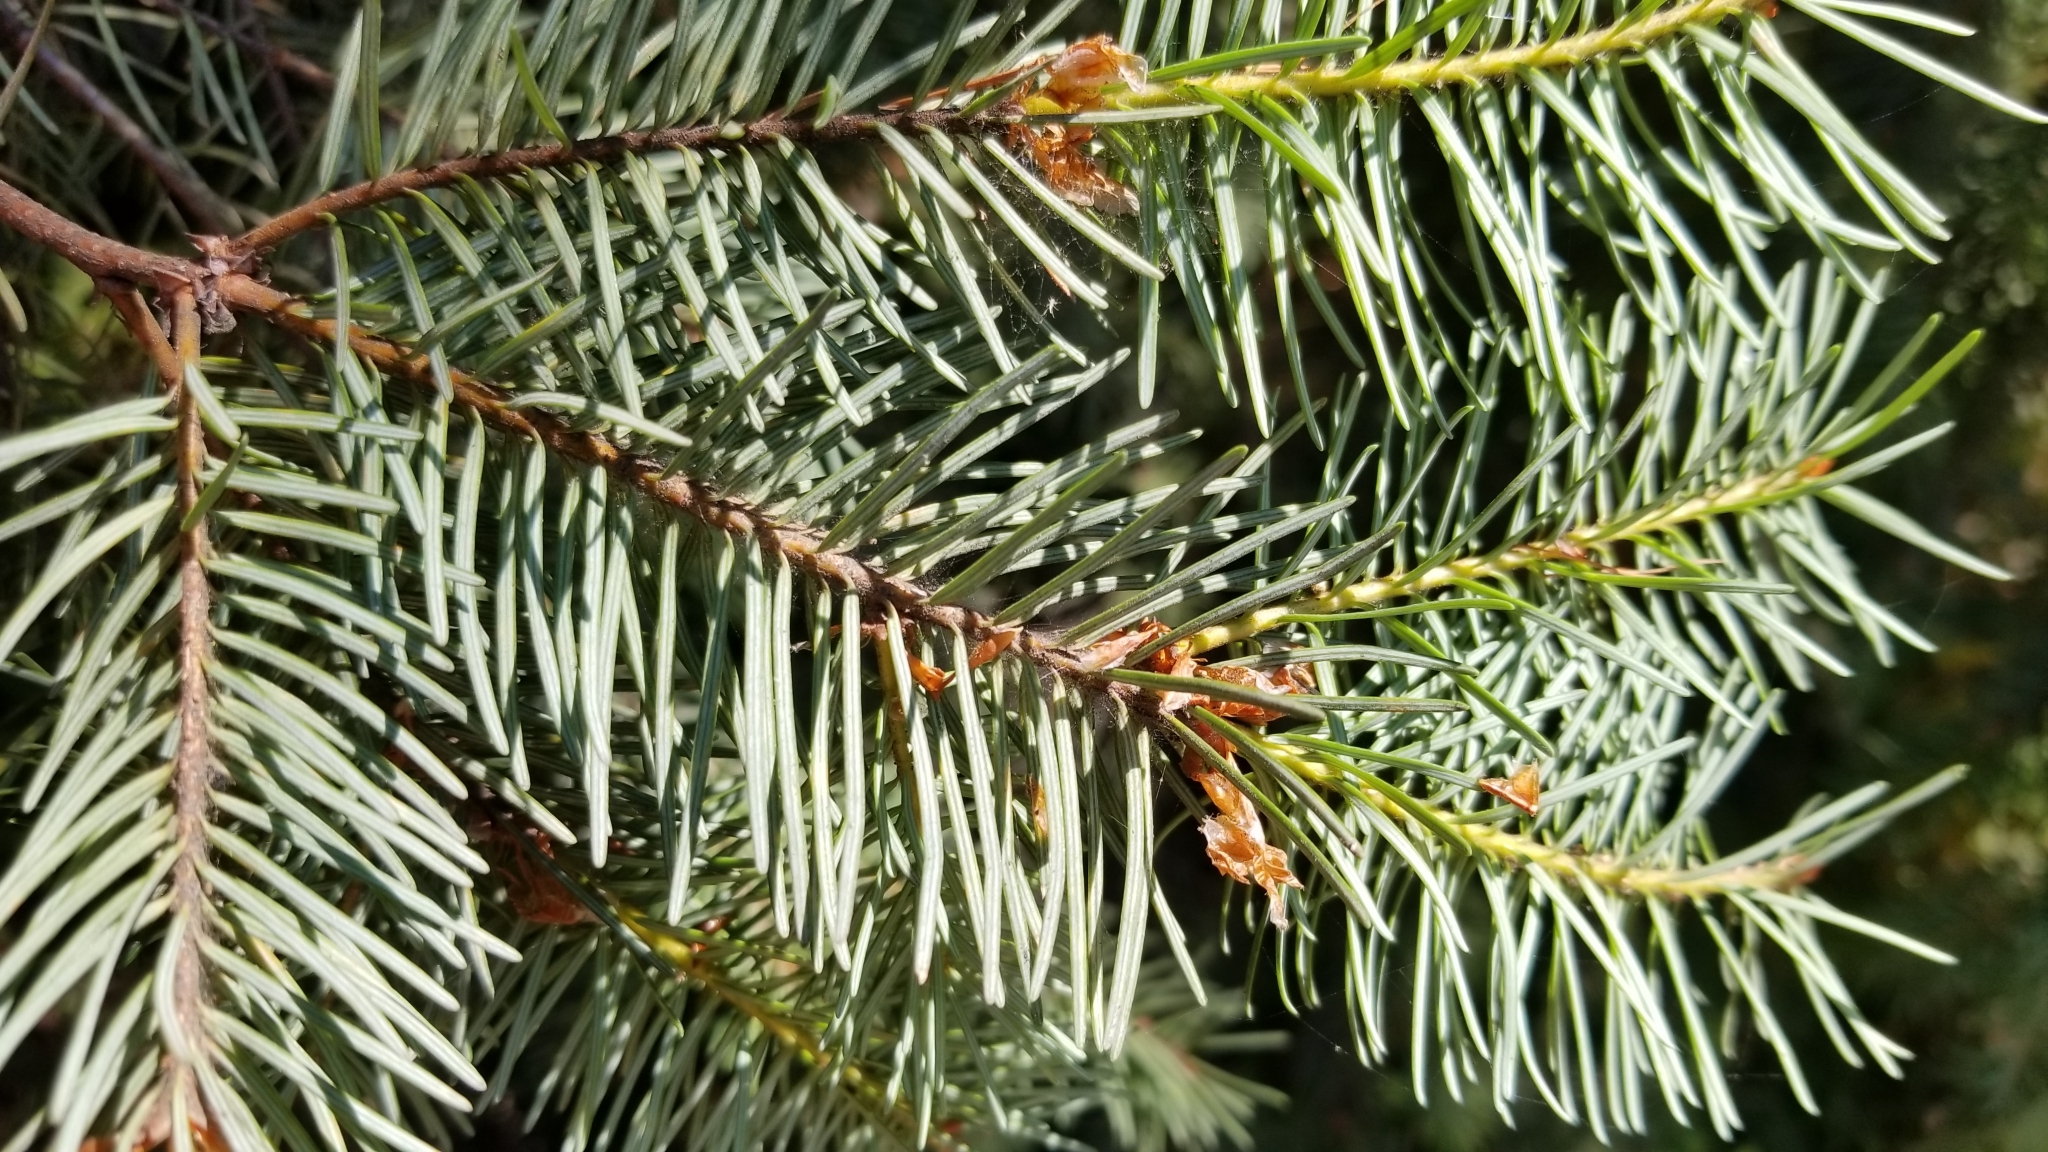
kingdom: Plantae
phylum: Tracheophyta
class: Pinopsida
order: Pinales
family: Pinaceae
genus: Pseudotsuga
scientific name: Pseudotsuga menziesii
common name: Douglas fir
